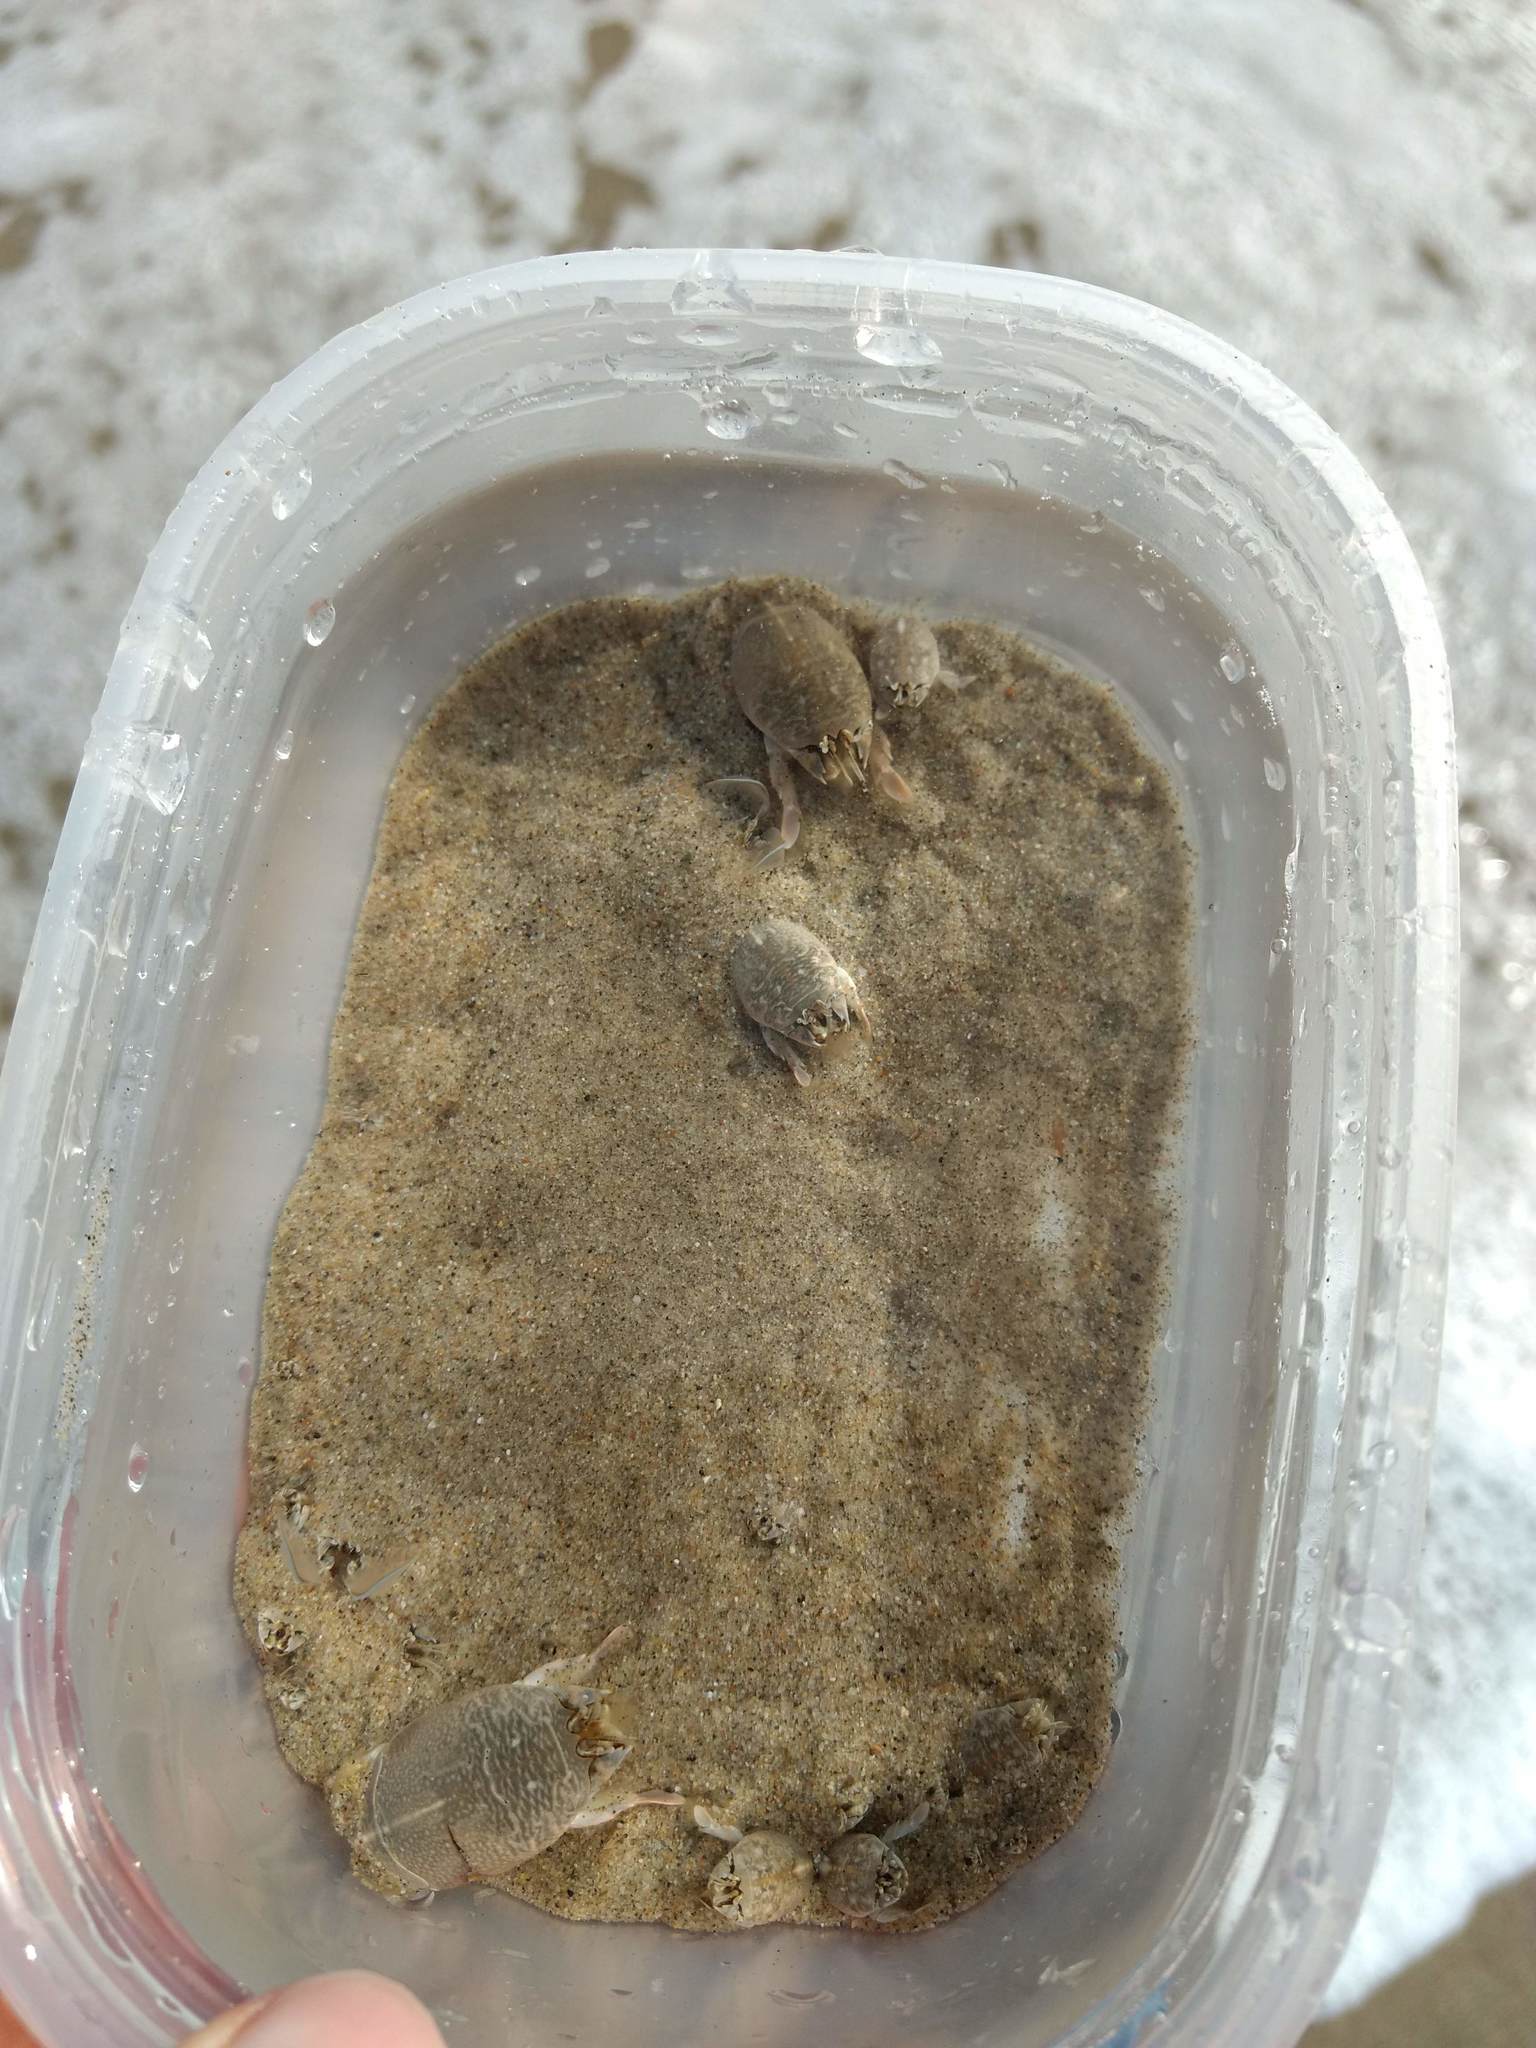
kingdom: Animalia
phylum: Arthropoda
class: Malacostraca
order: Decapoda
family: Hippidae
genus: Emerita
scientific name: Emerita analoga
